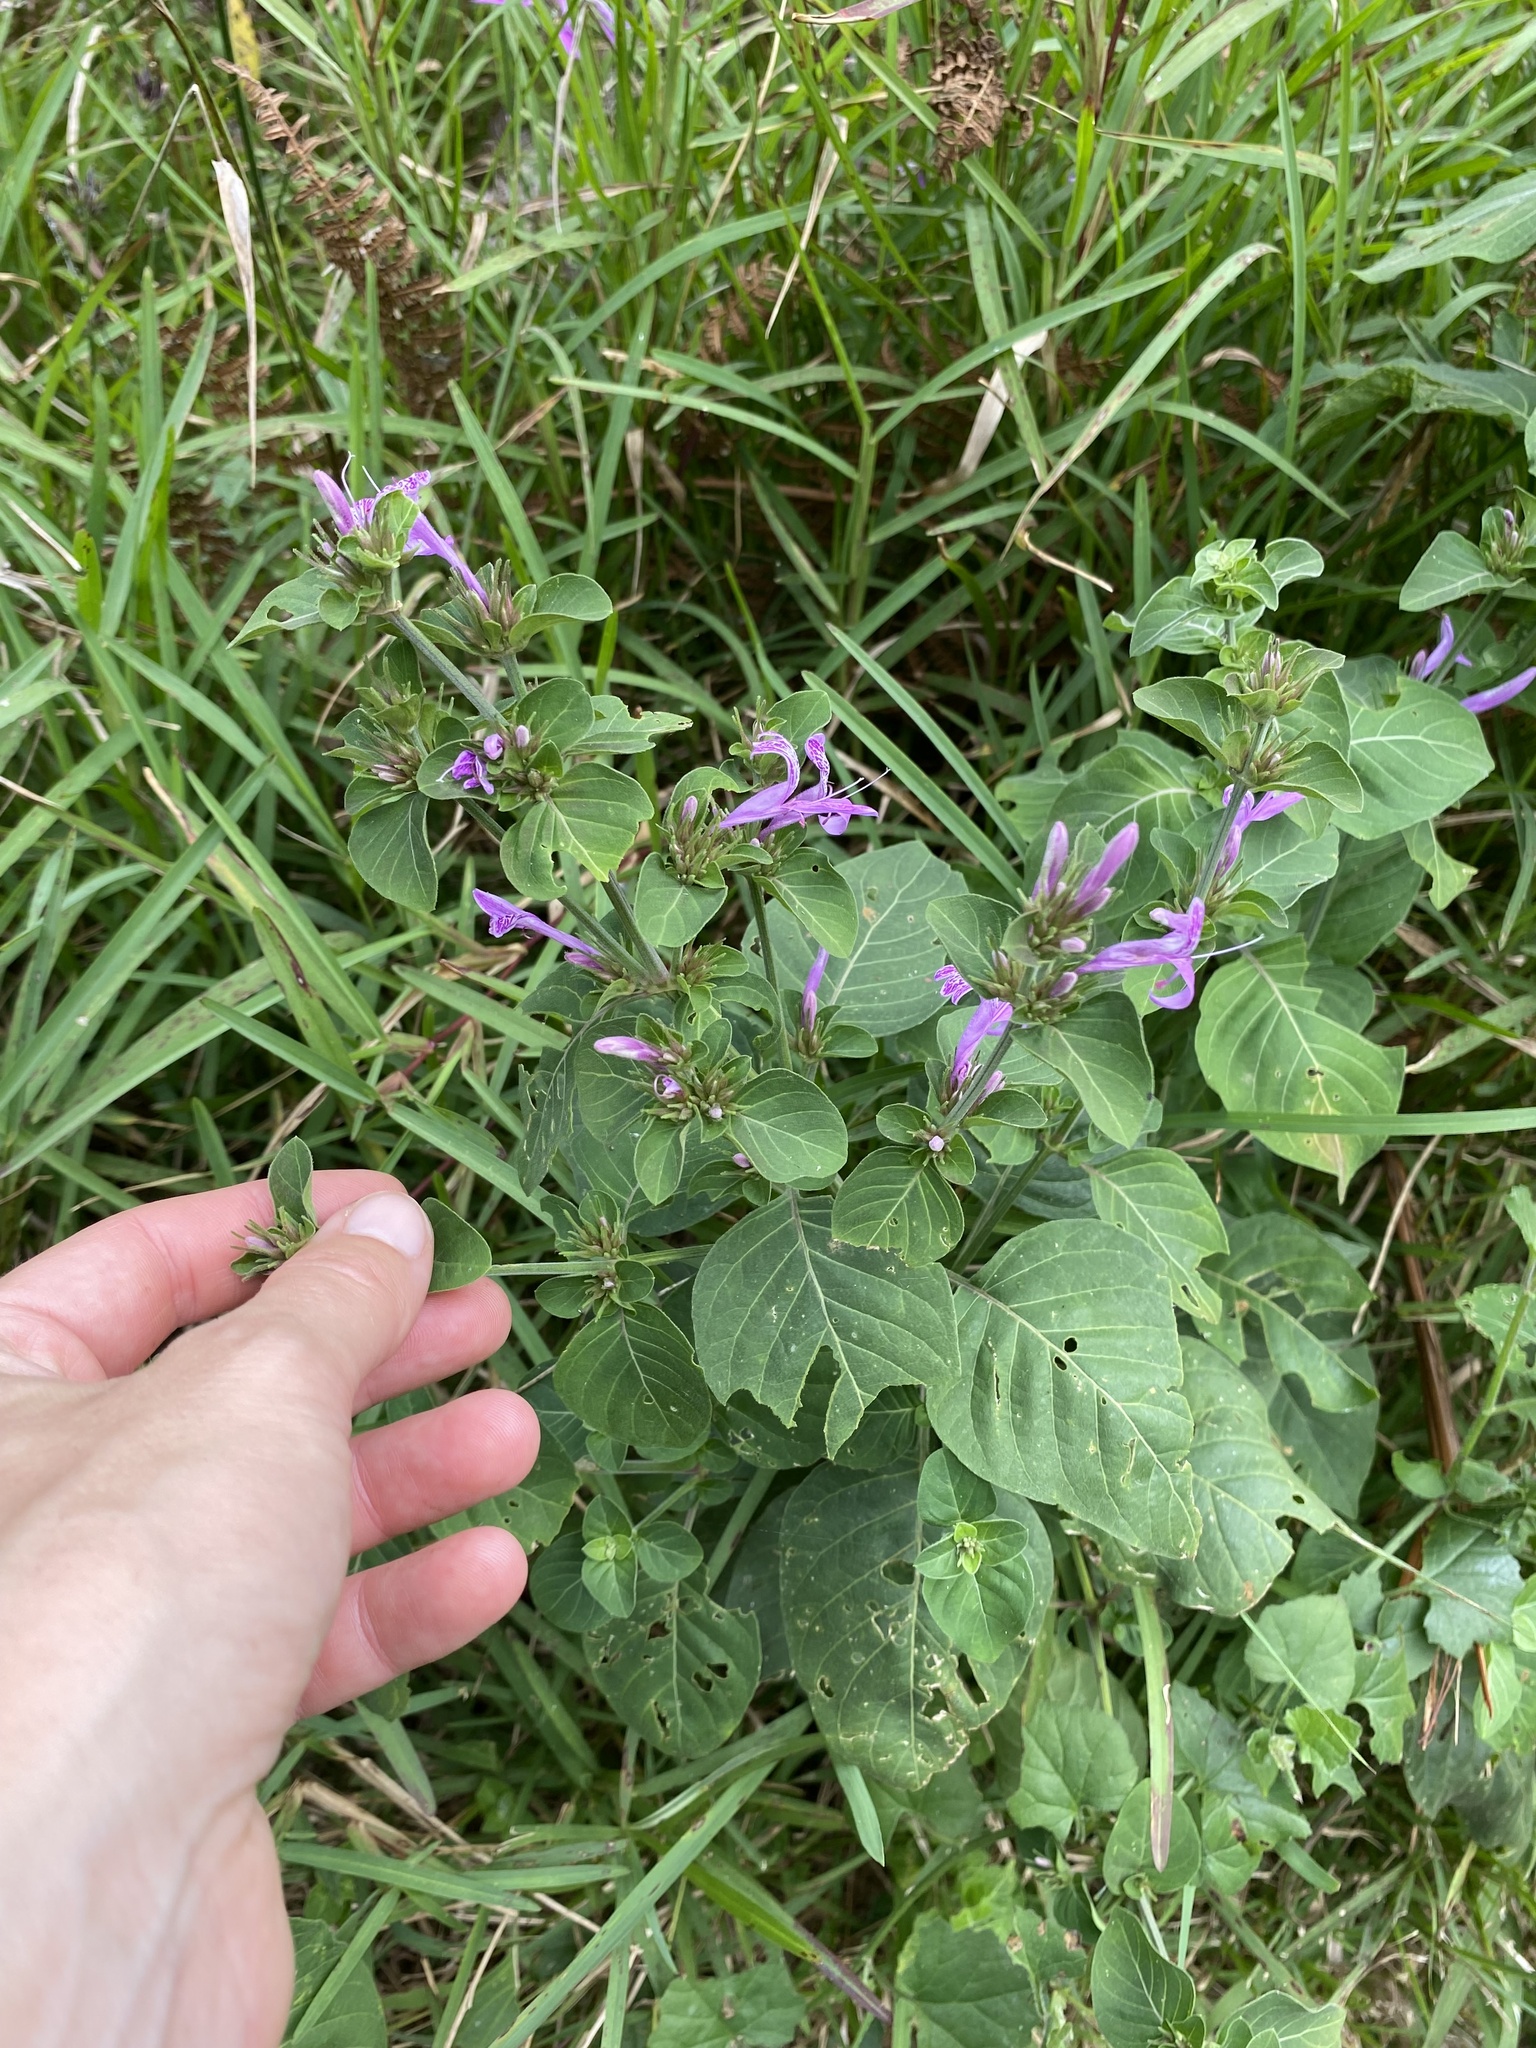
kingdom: Plantae
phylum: Tracheophyta
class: Magnoliopsida
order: Lamiales
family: Acanthaceae
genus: Hypoestes
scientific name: Hypoestes aristata
